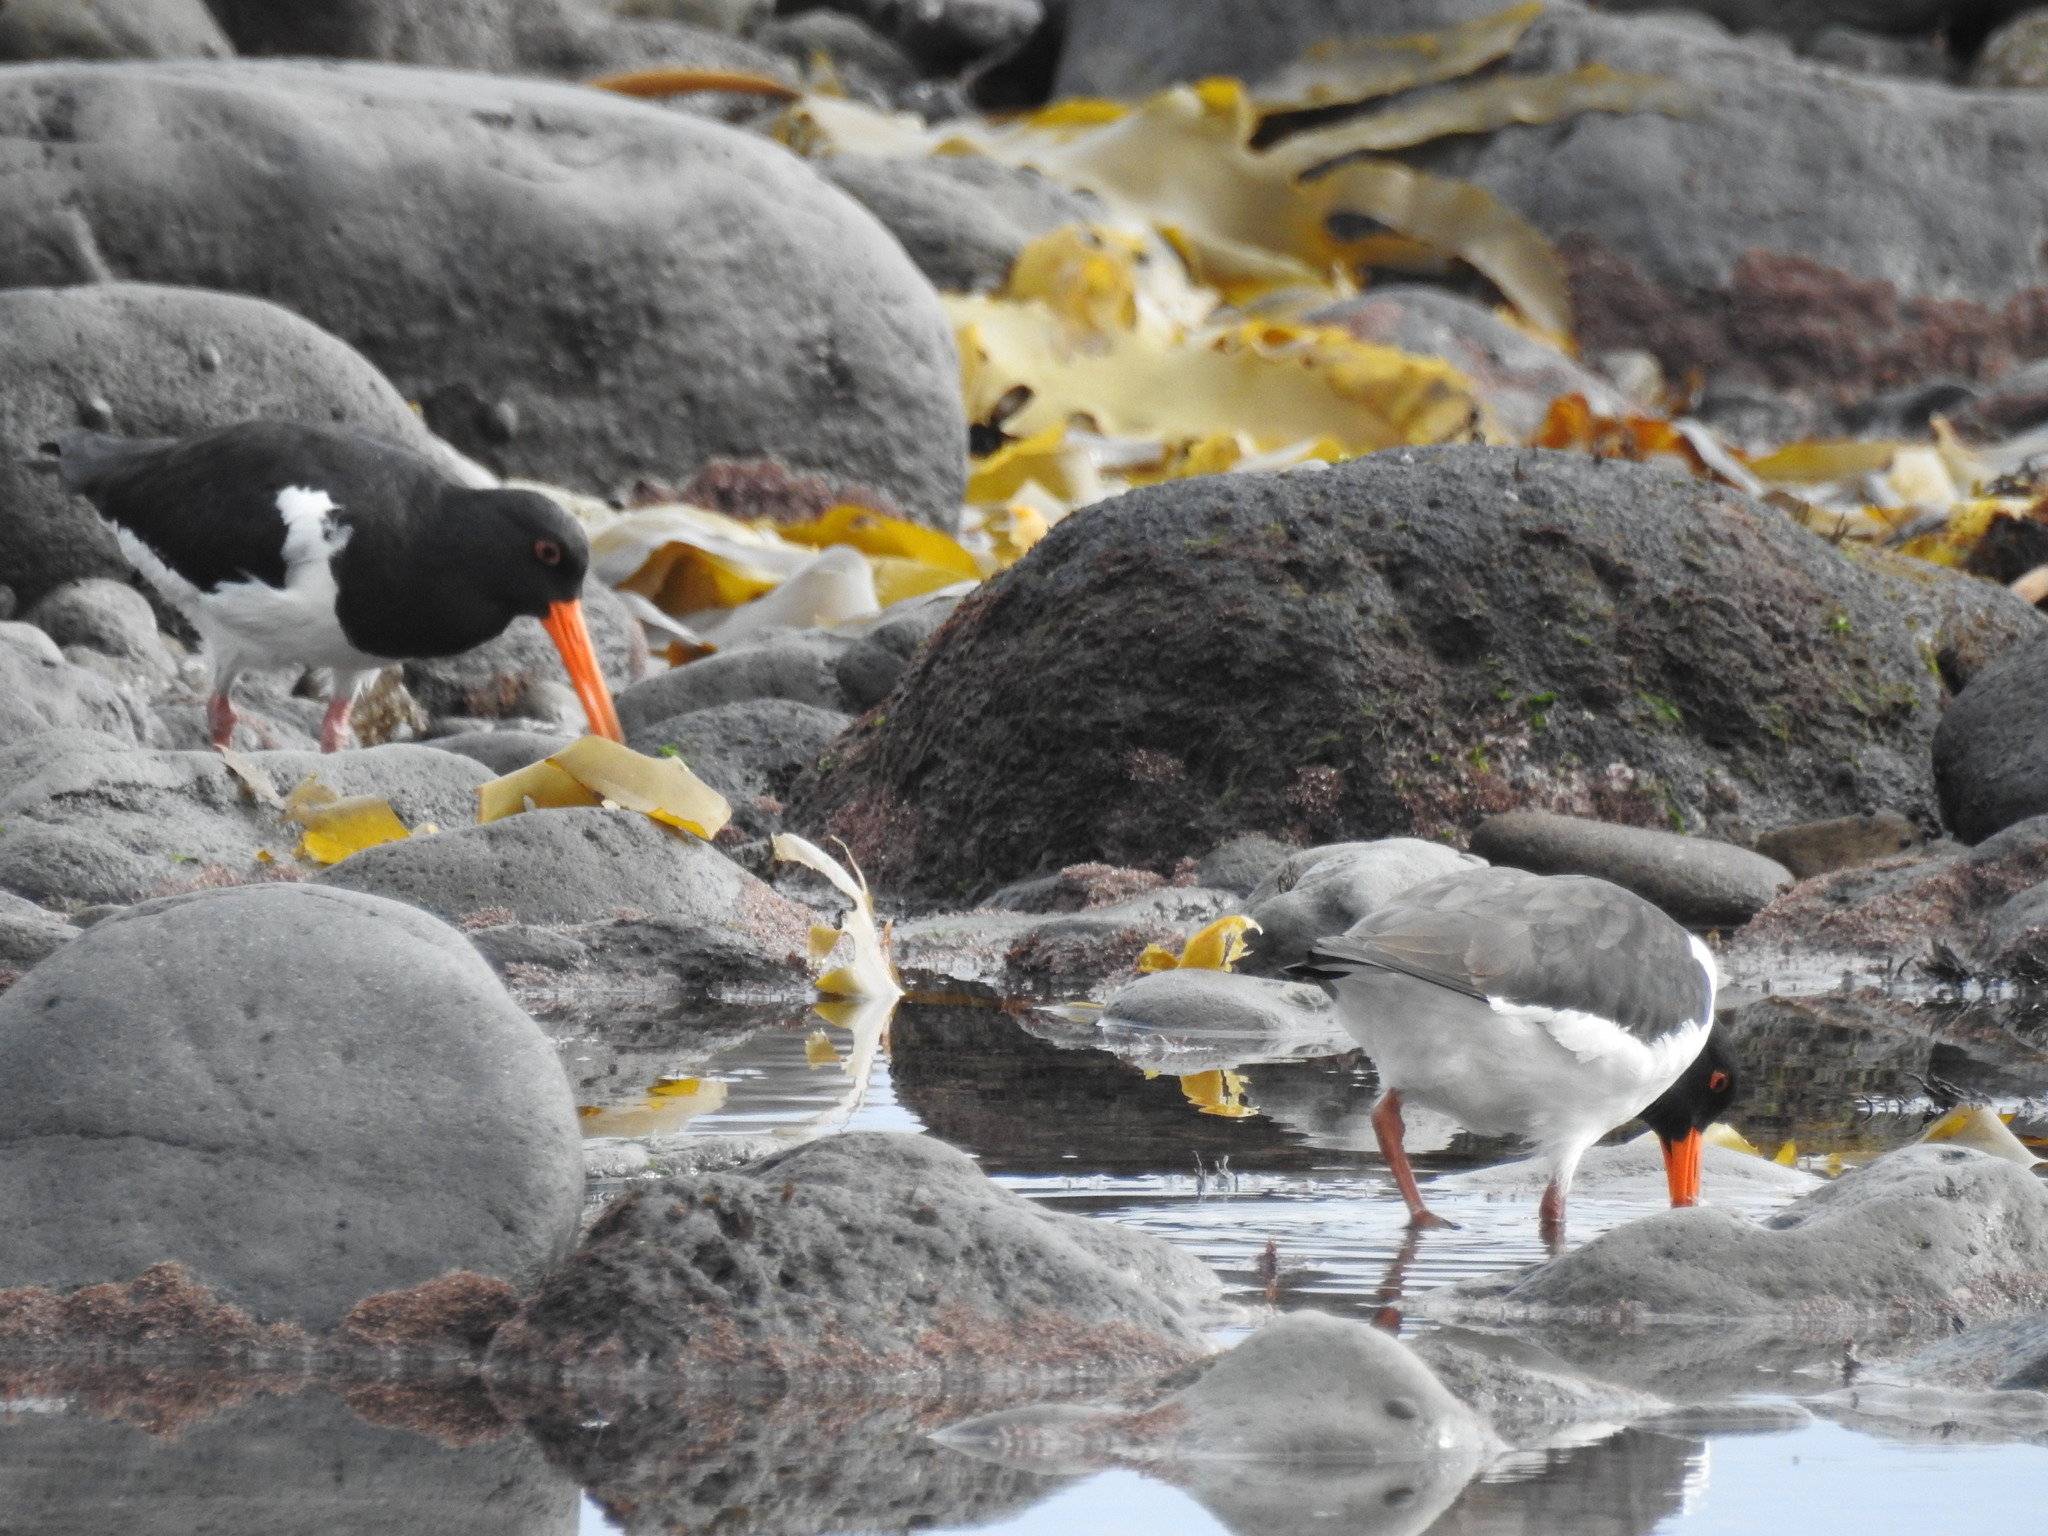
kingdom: Animalia
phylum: Chordata
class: Aves
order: Charadriiformes
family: Haematopodidae
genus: Haematopus
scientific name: Haematopus finschi
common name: South island oystercatcher
